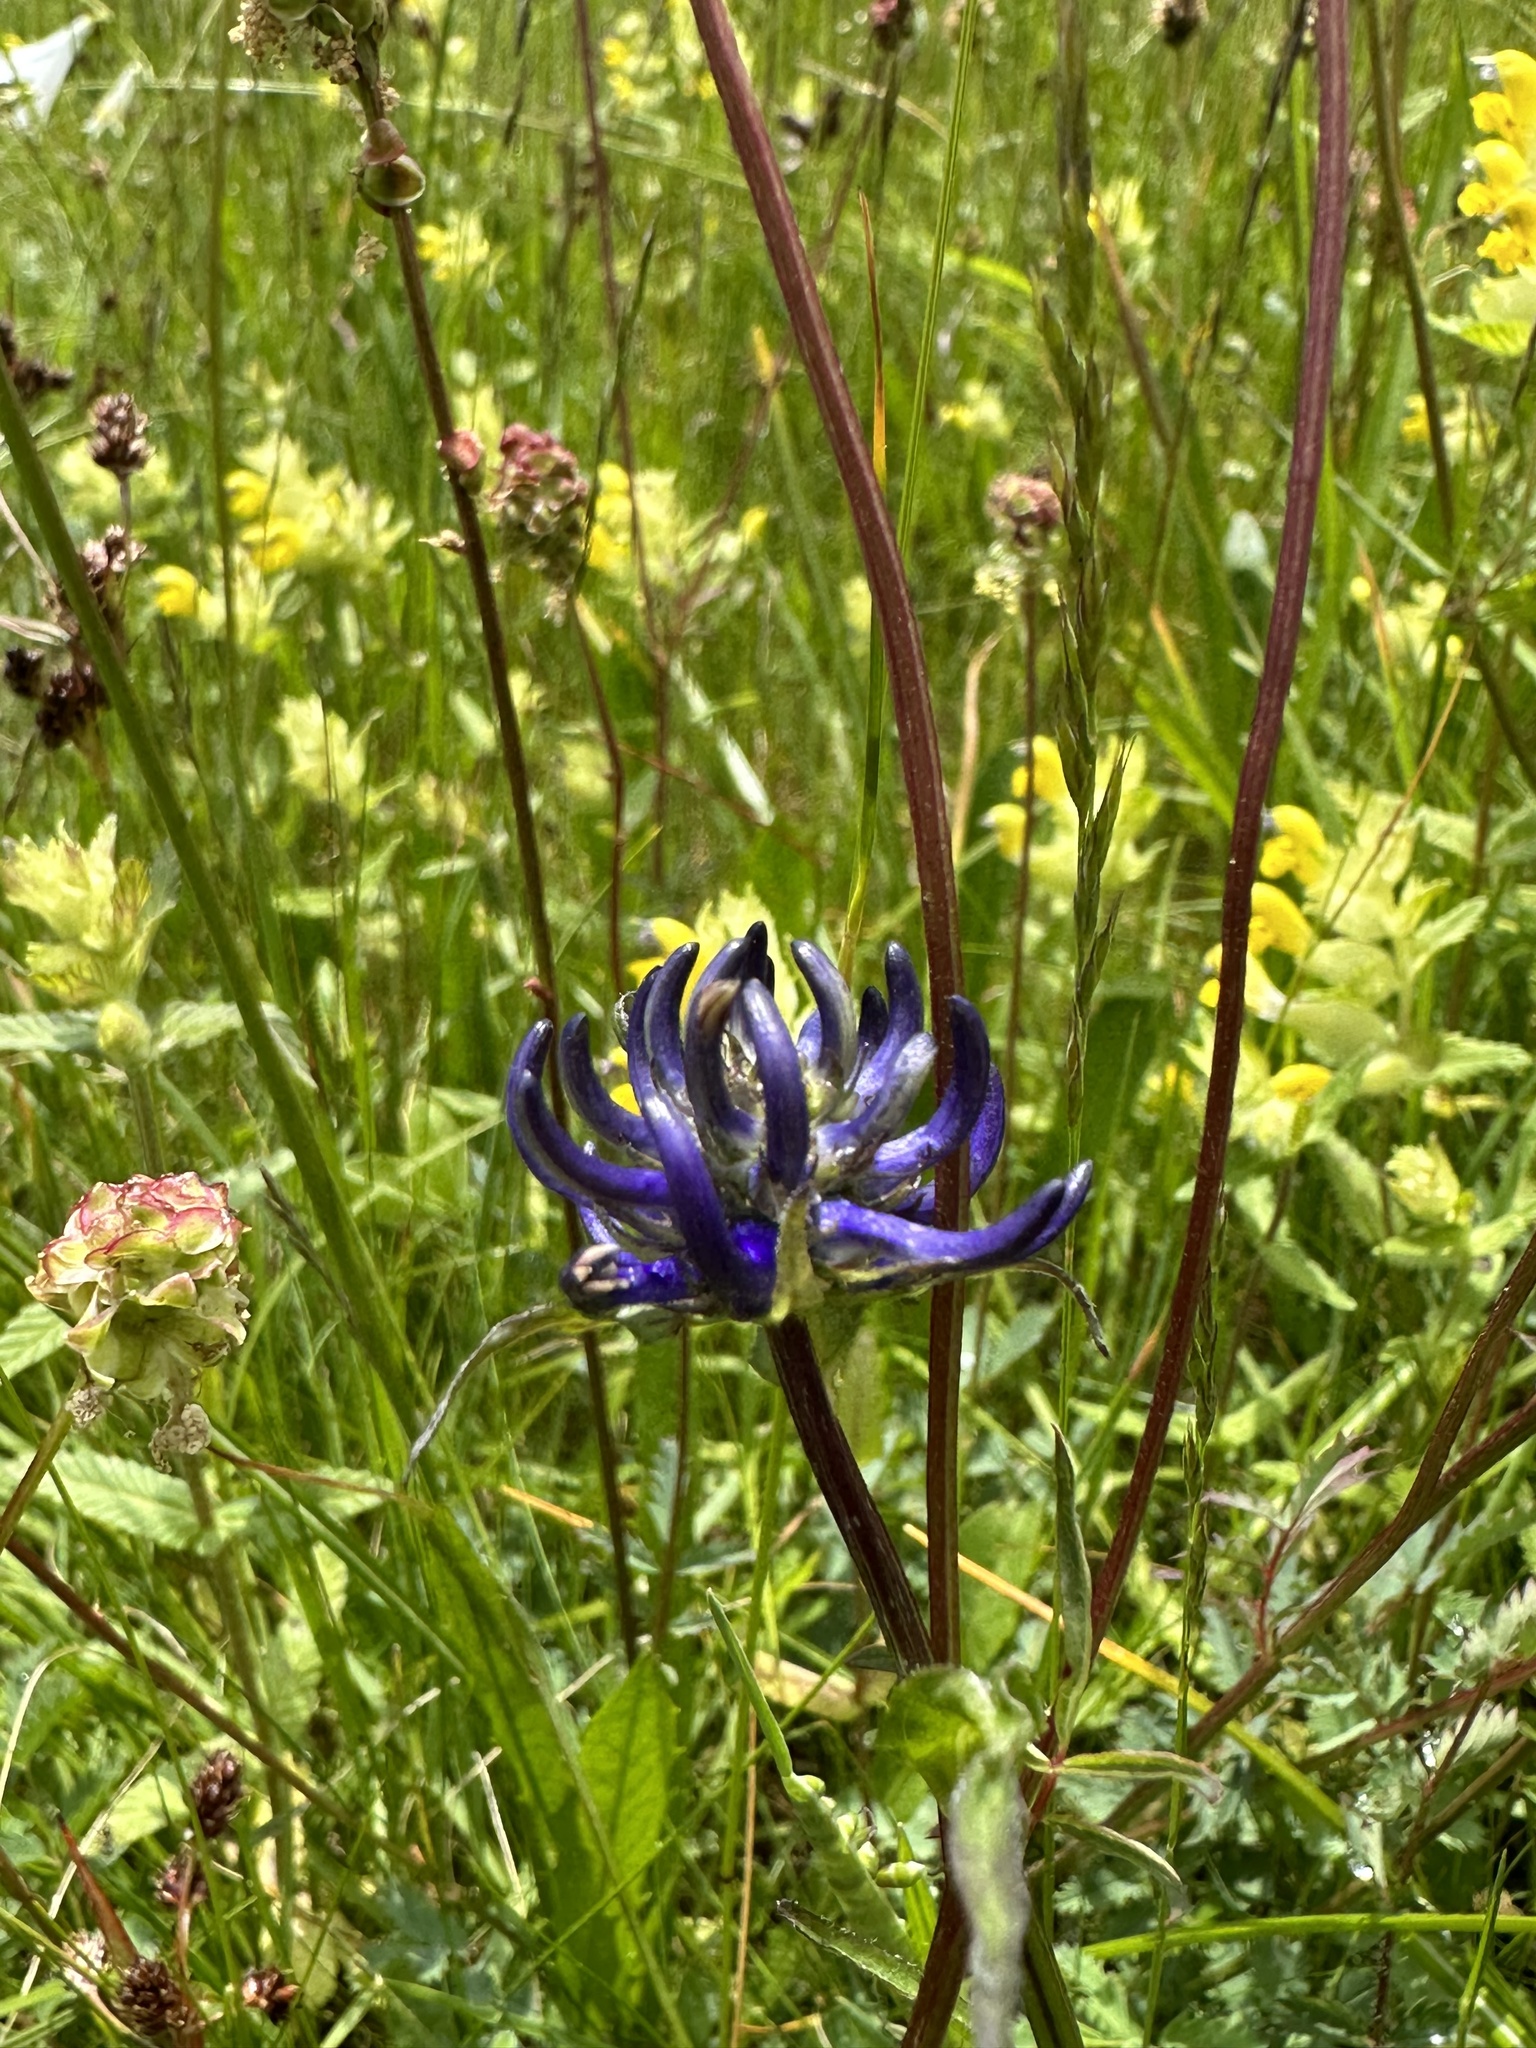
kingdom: Plantae
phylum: Tracheophyta
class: Magnoliopsida
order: Asterales
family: Campanulaceae
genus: Phyteuma
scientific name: Phyteuma orbiculare
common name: Round-headed rampion
